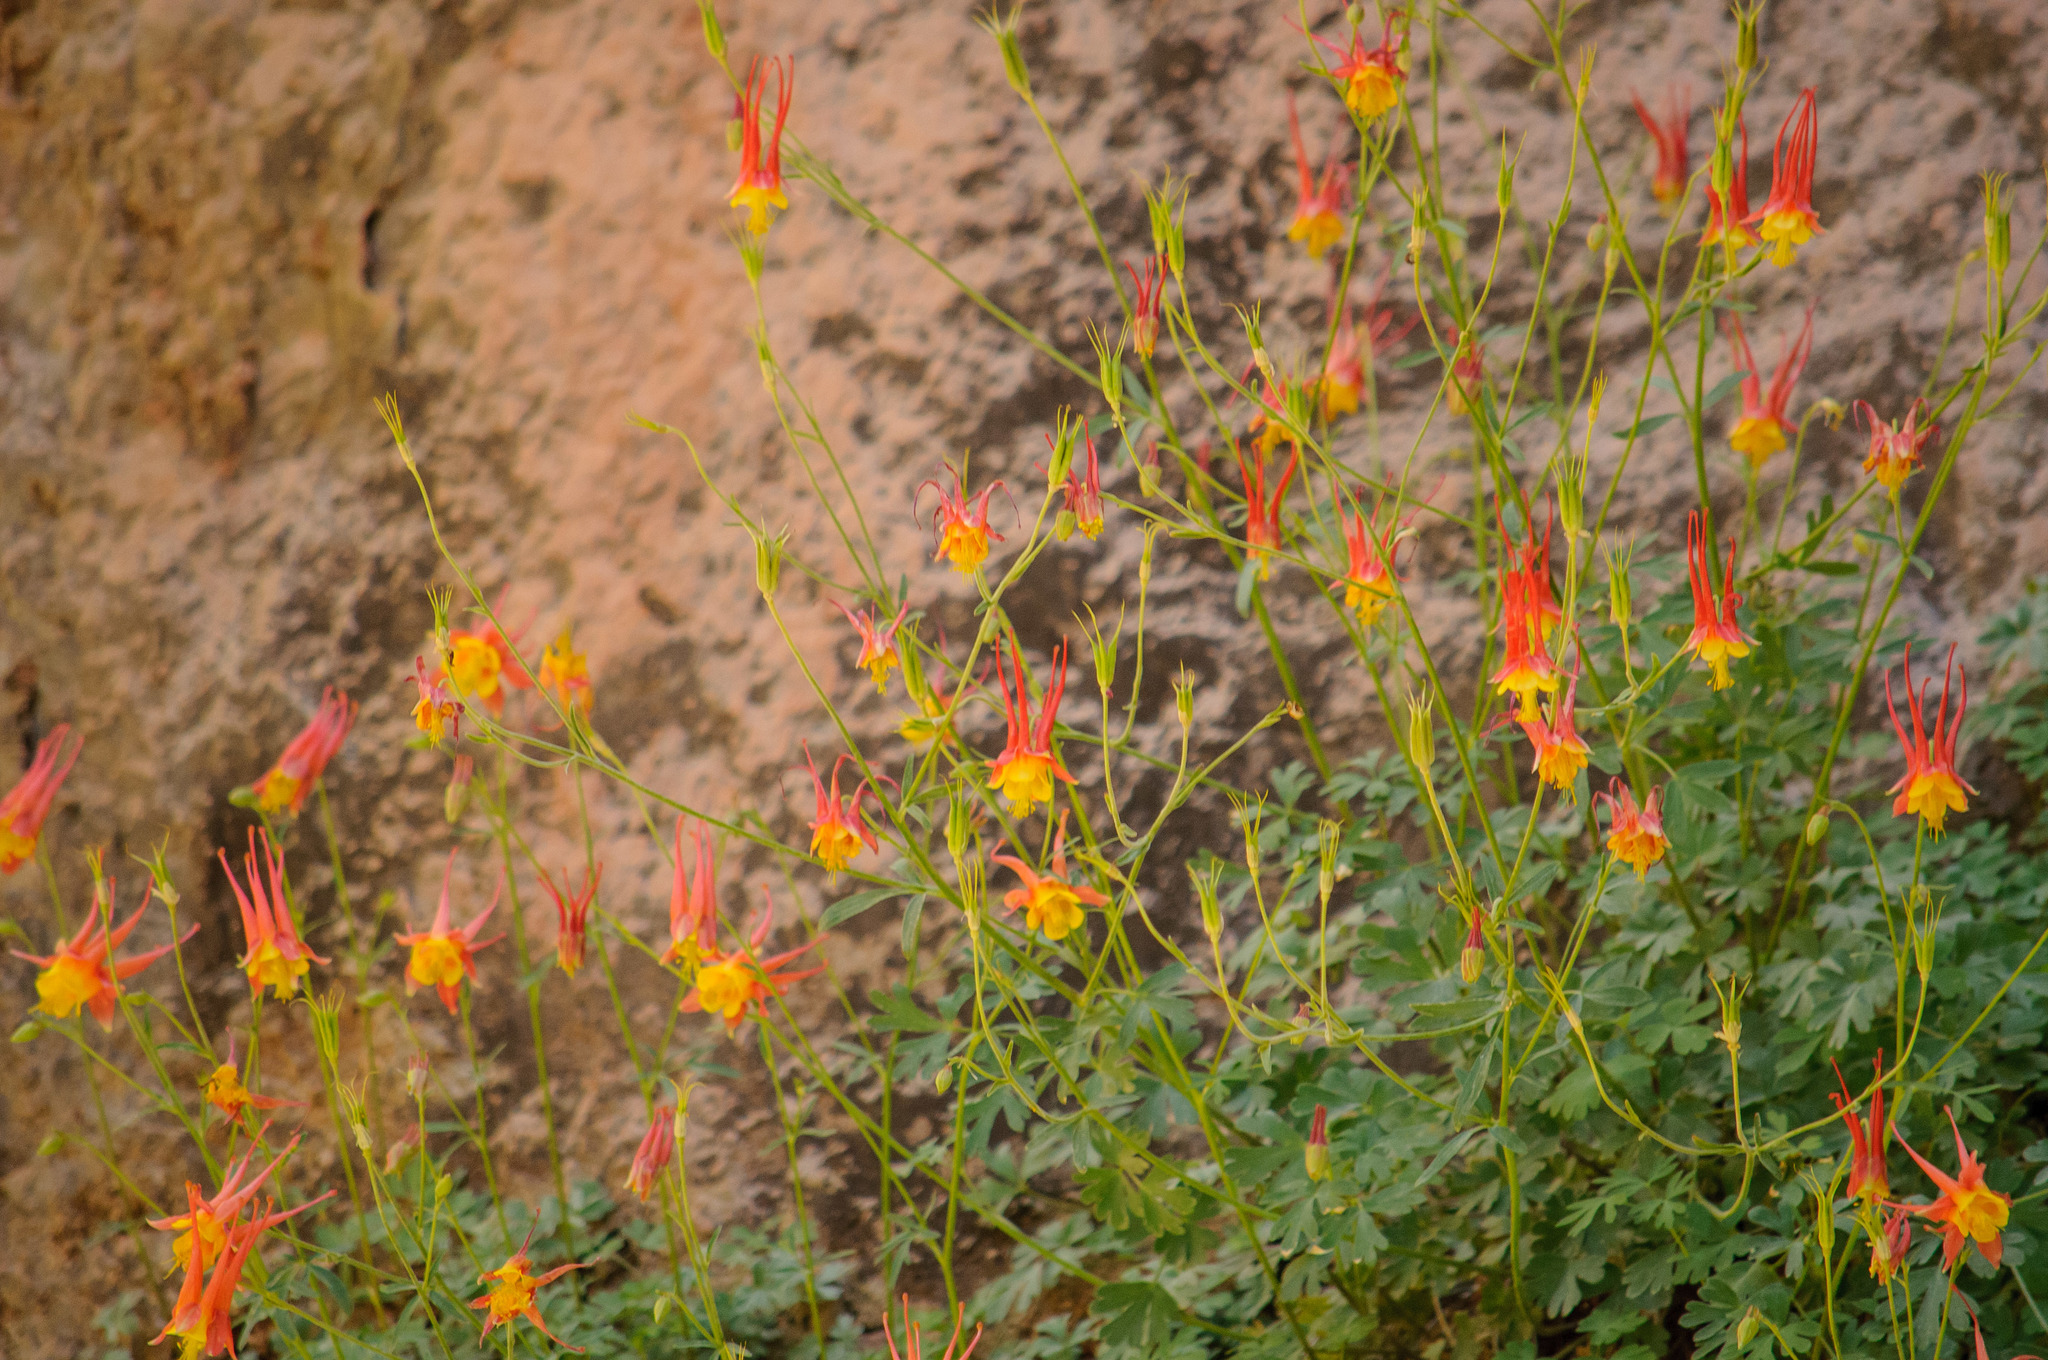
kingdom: Plantae
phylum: Tracheophyta
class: Magnoliopsida
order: Ranunculales
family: Ranunculaceae
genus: Aquilegia
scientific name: Aquilegia desertorum
